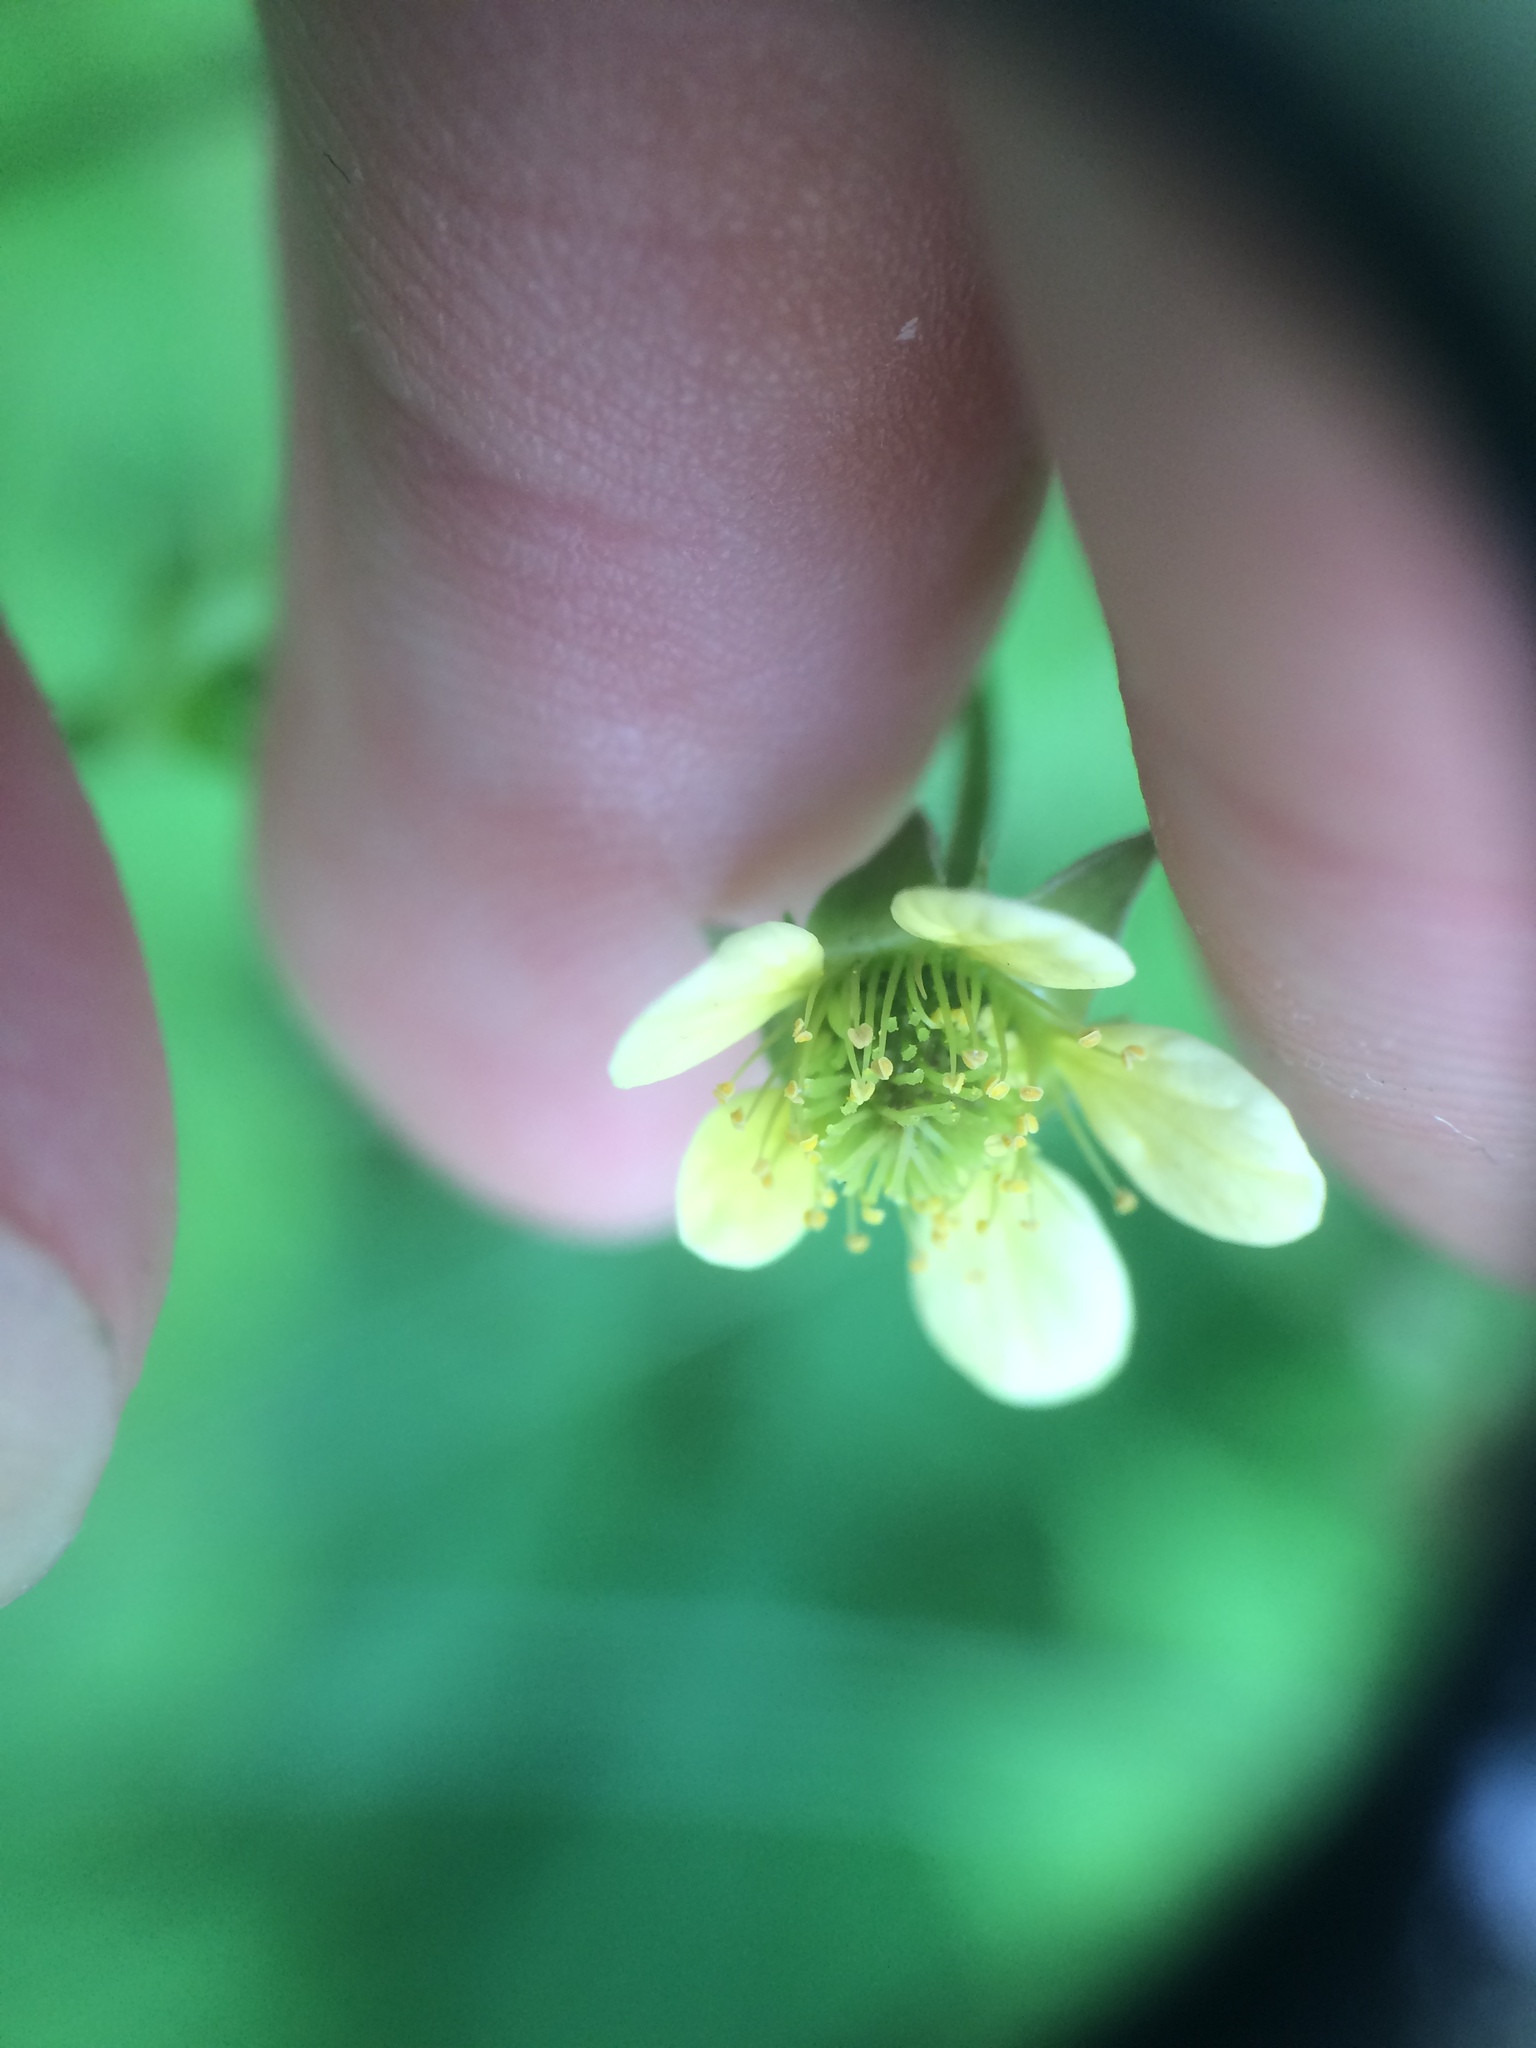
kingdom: Plantae
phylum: Tracheophyta
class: Magnoliopsida
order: Rosales
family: Rosaceae
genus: Geum
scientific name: Geum catlingii
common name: Catling's avens
